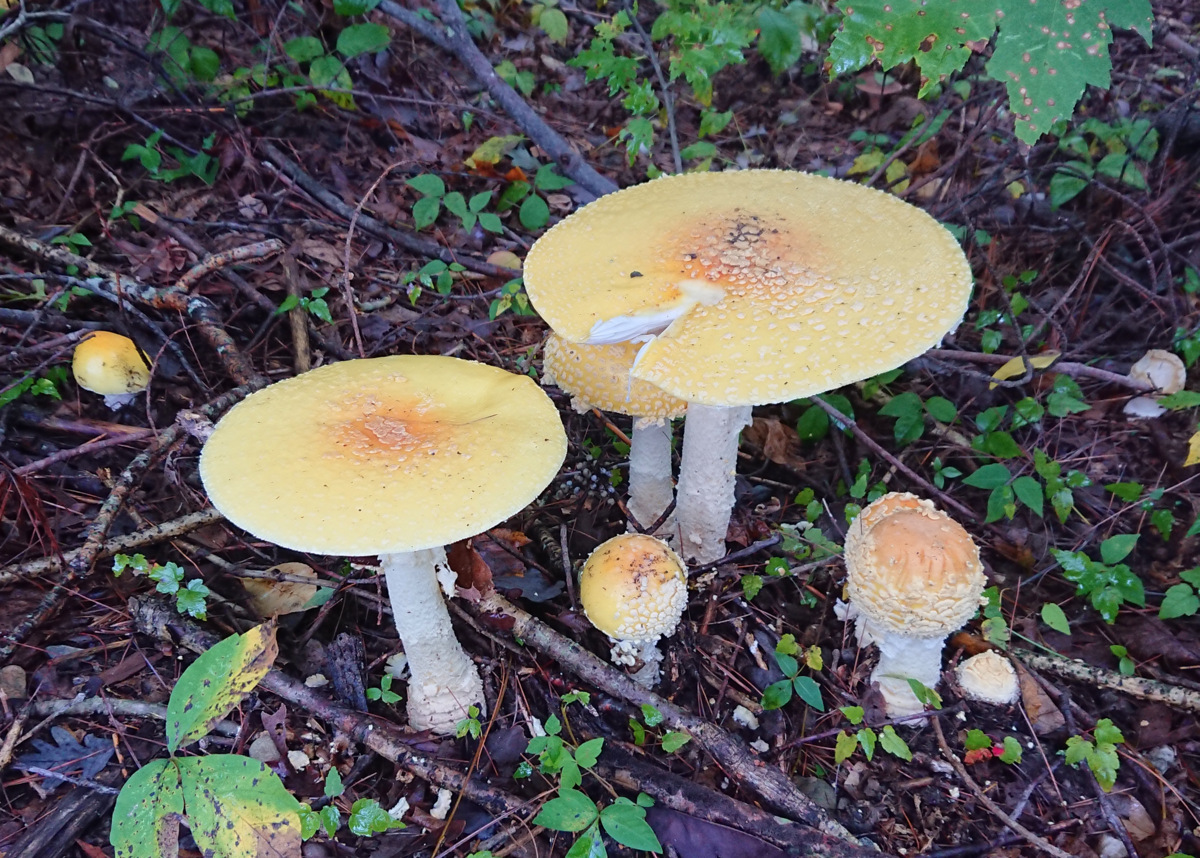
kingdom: Fungi
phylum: Basidiomycota
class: Agaricomycetes
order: Agaricales
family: Amanitaceae
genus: Amanita
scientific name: Amanita muscaria
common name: Fly agaric
